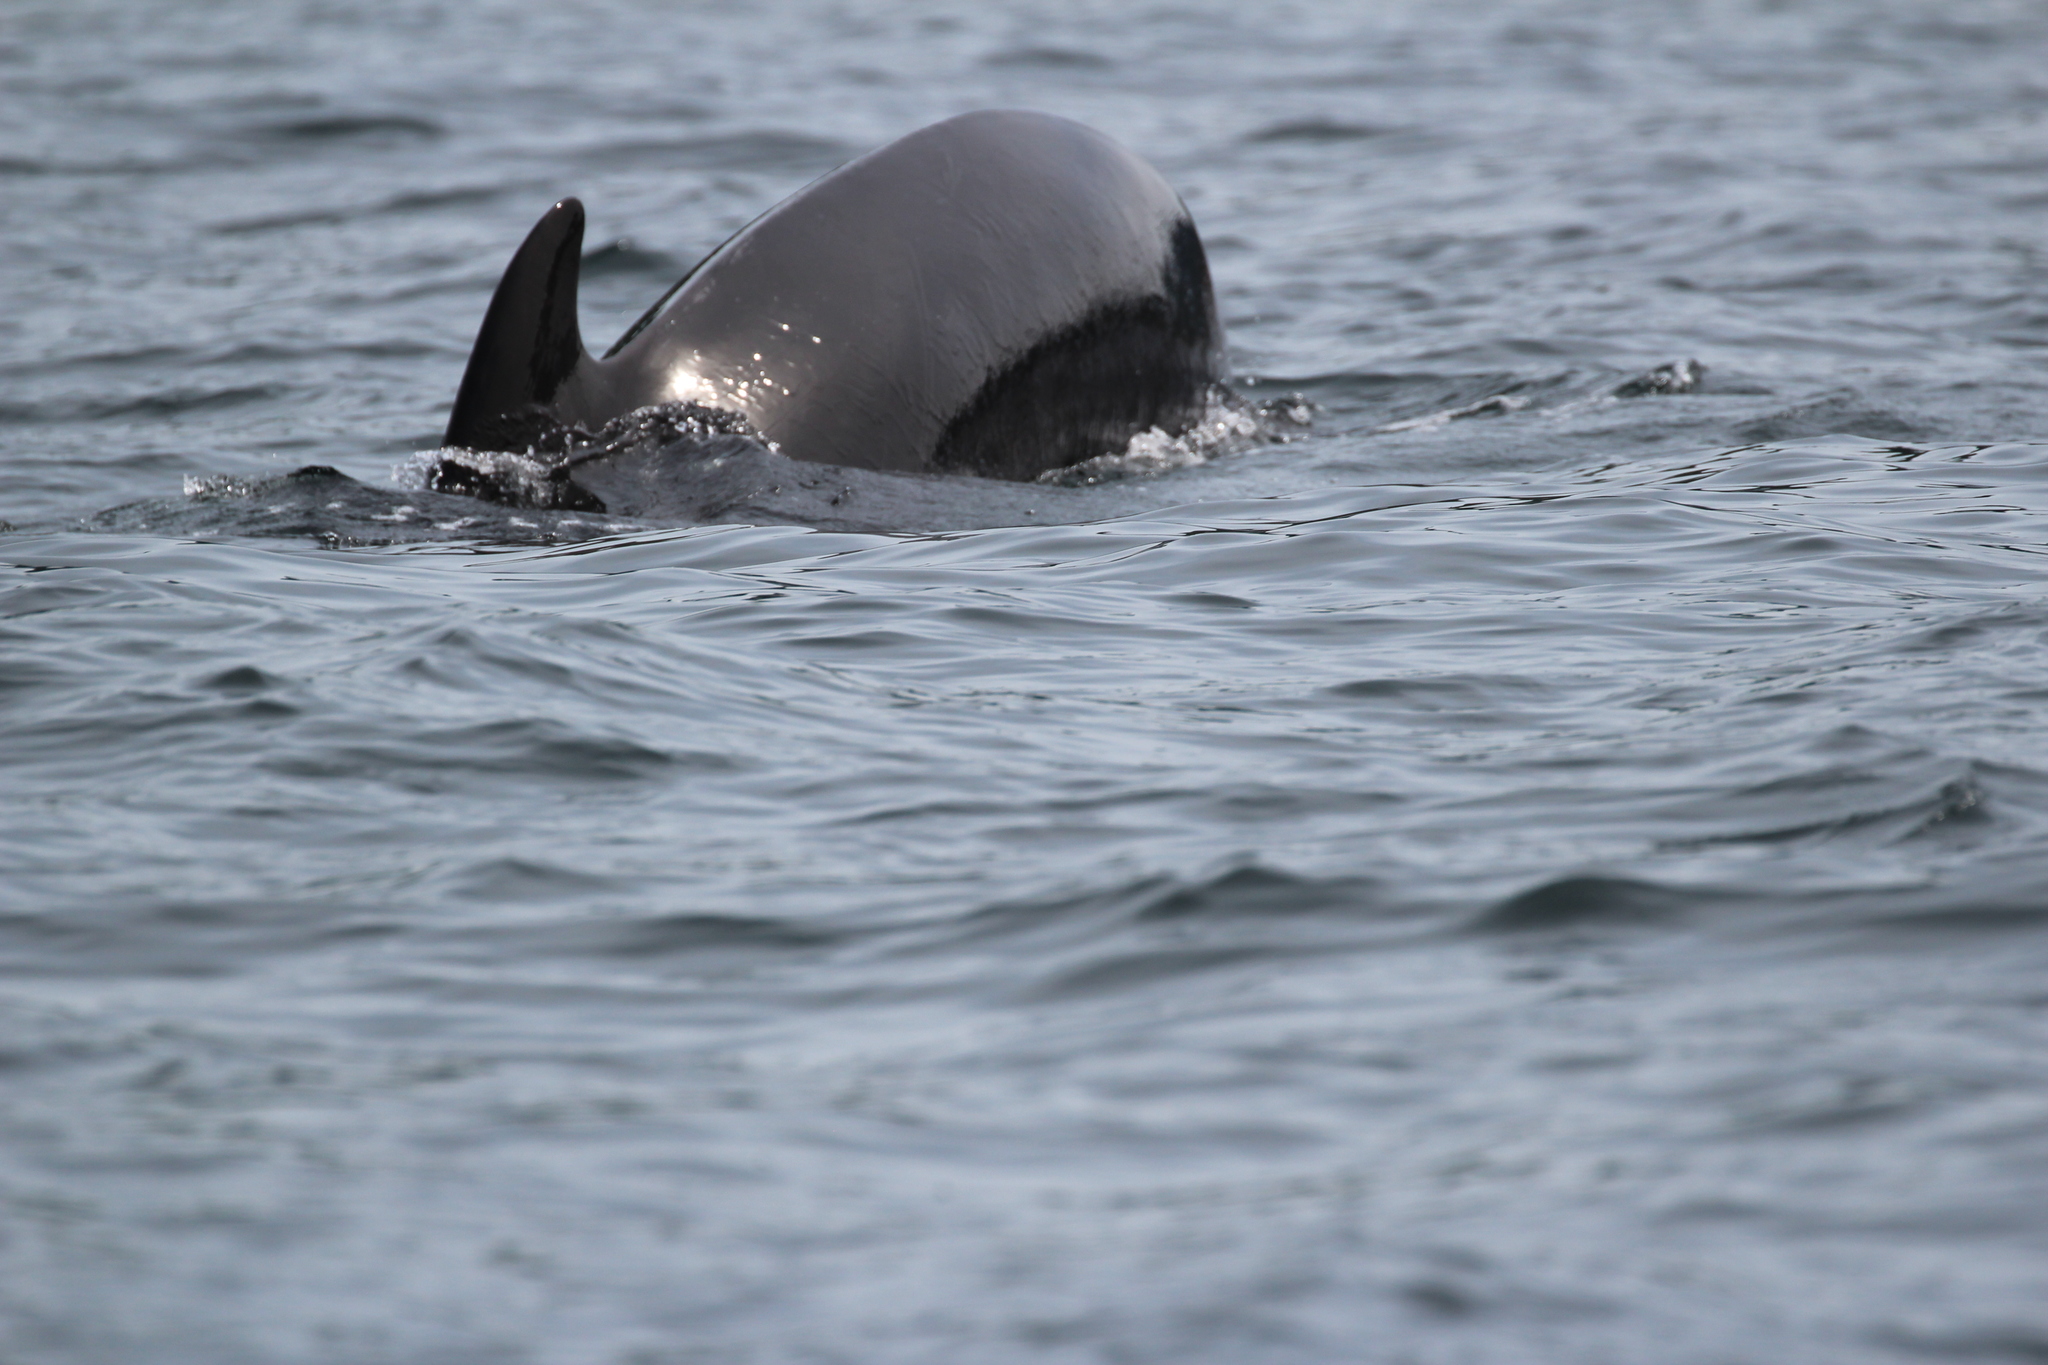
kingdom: Animalia
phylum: Chordata
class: Mammalia
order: Cetacea
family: Delphinidae
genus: Globicephala
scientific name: Globicephala melas
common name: Long-finned pilot whale
